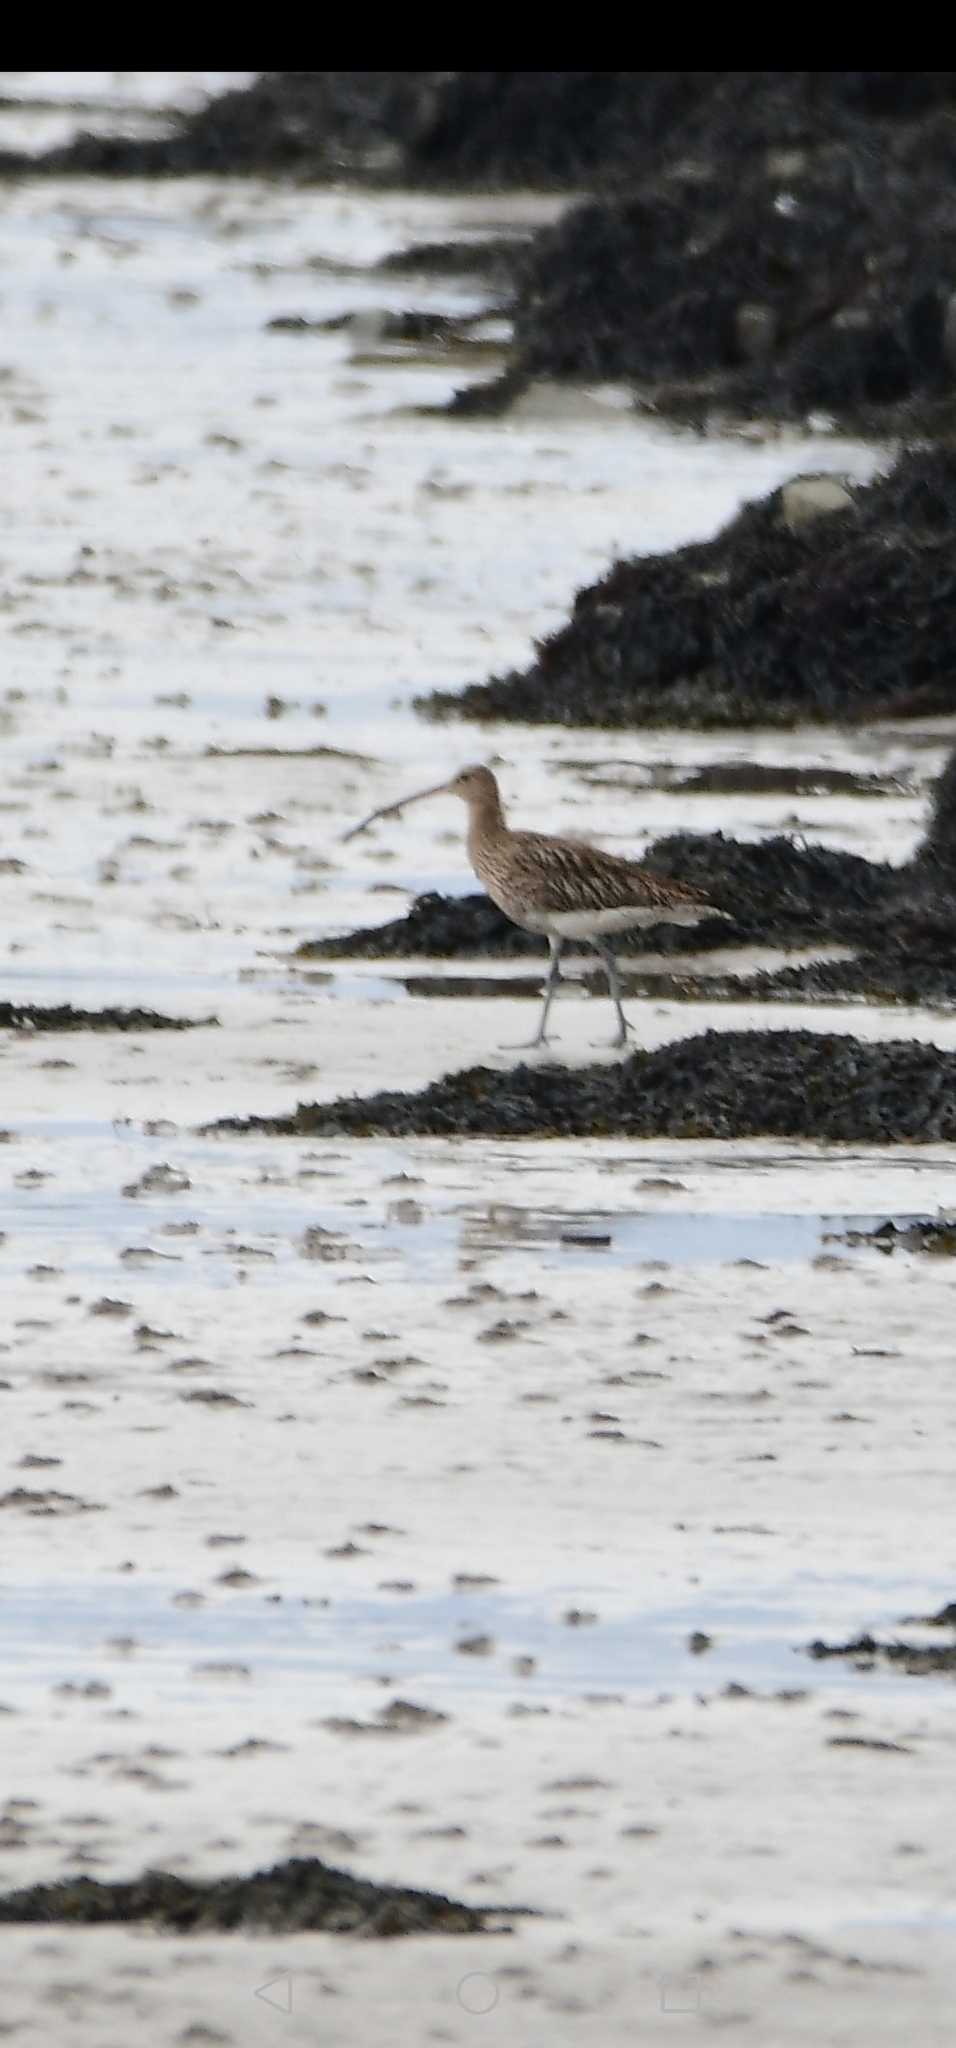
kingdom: Animalia
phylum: Chordata
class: Aves
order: Charadriiformes
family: Scolopacidae
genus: Numenius
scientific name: Numenius arquata
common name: Eurasian curlew
